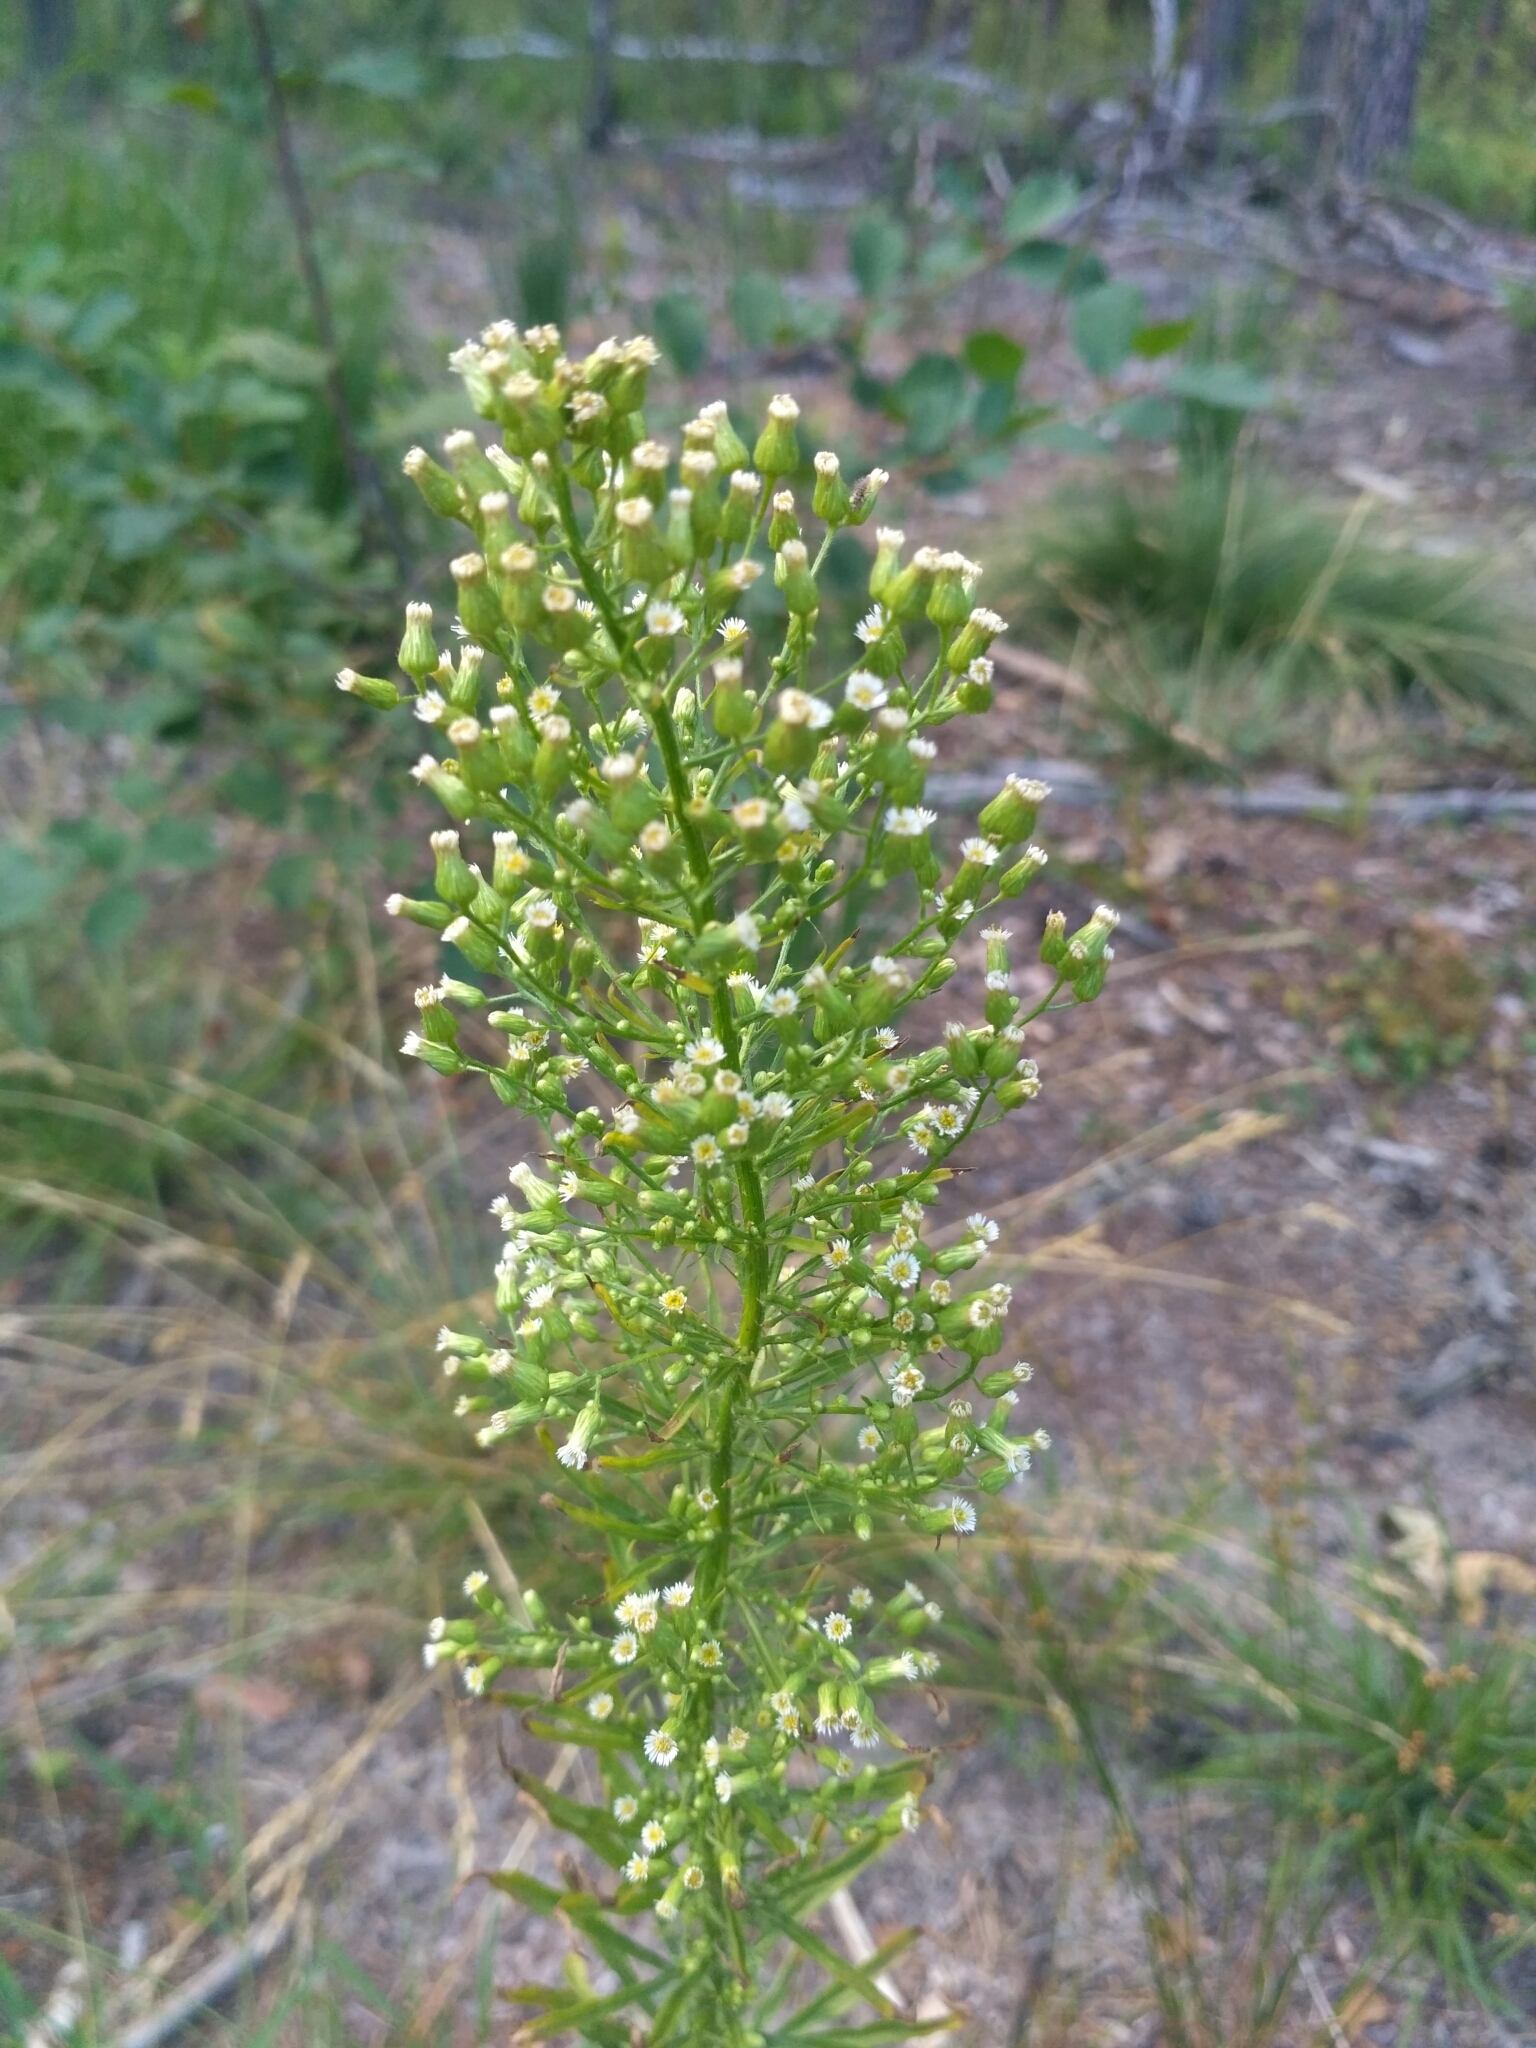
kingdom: Plantae
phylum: Tracheophyta
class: Magnoliopsida
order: Asterales
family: Asteraceae
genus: Erigeron
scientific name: Erigeron canadensis
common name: Canadian fleabane
